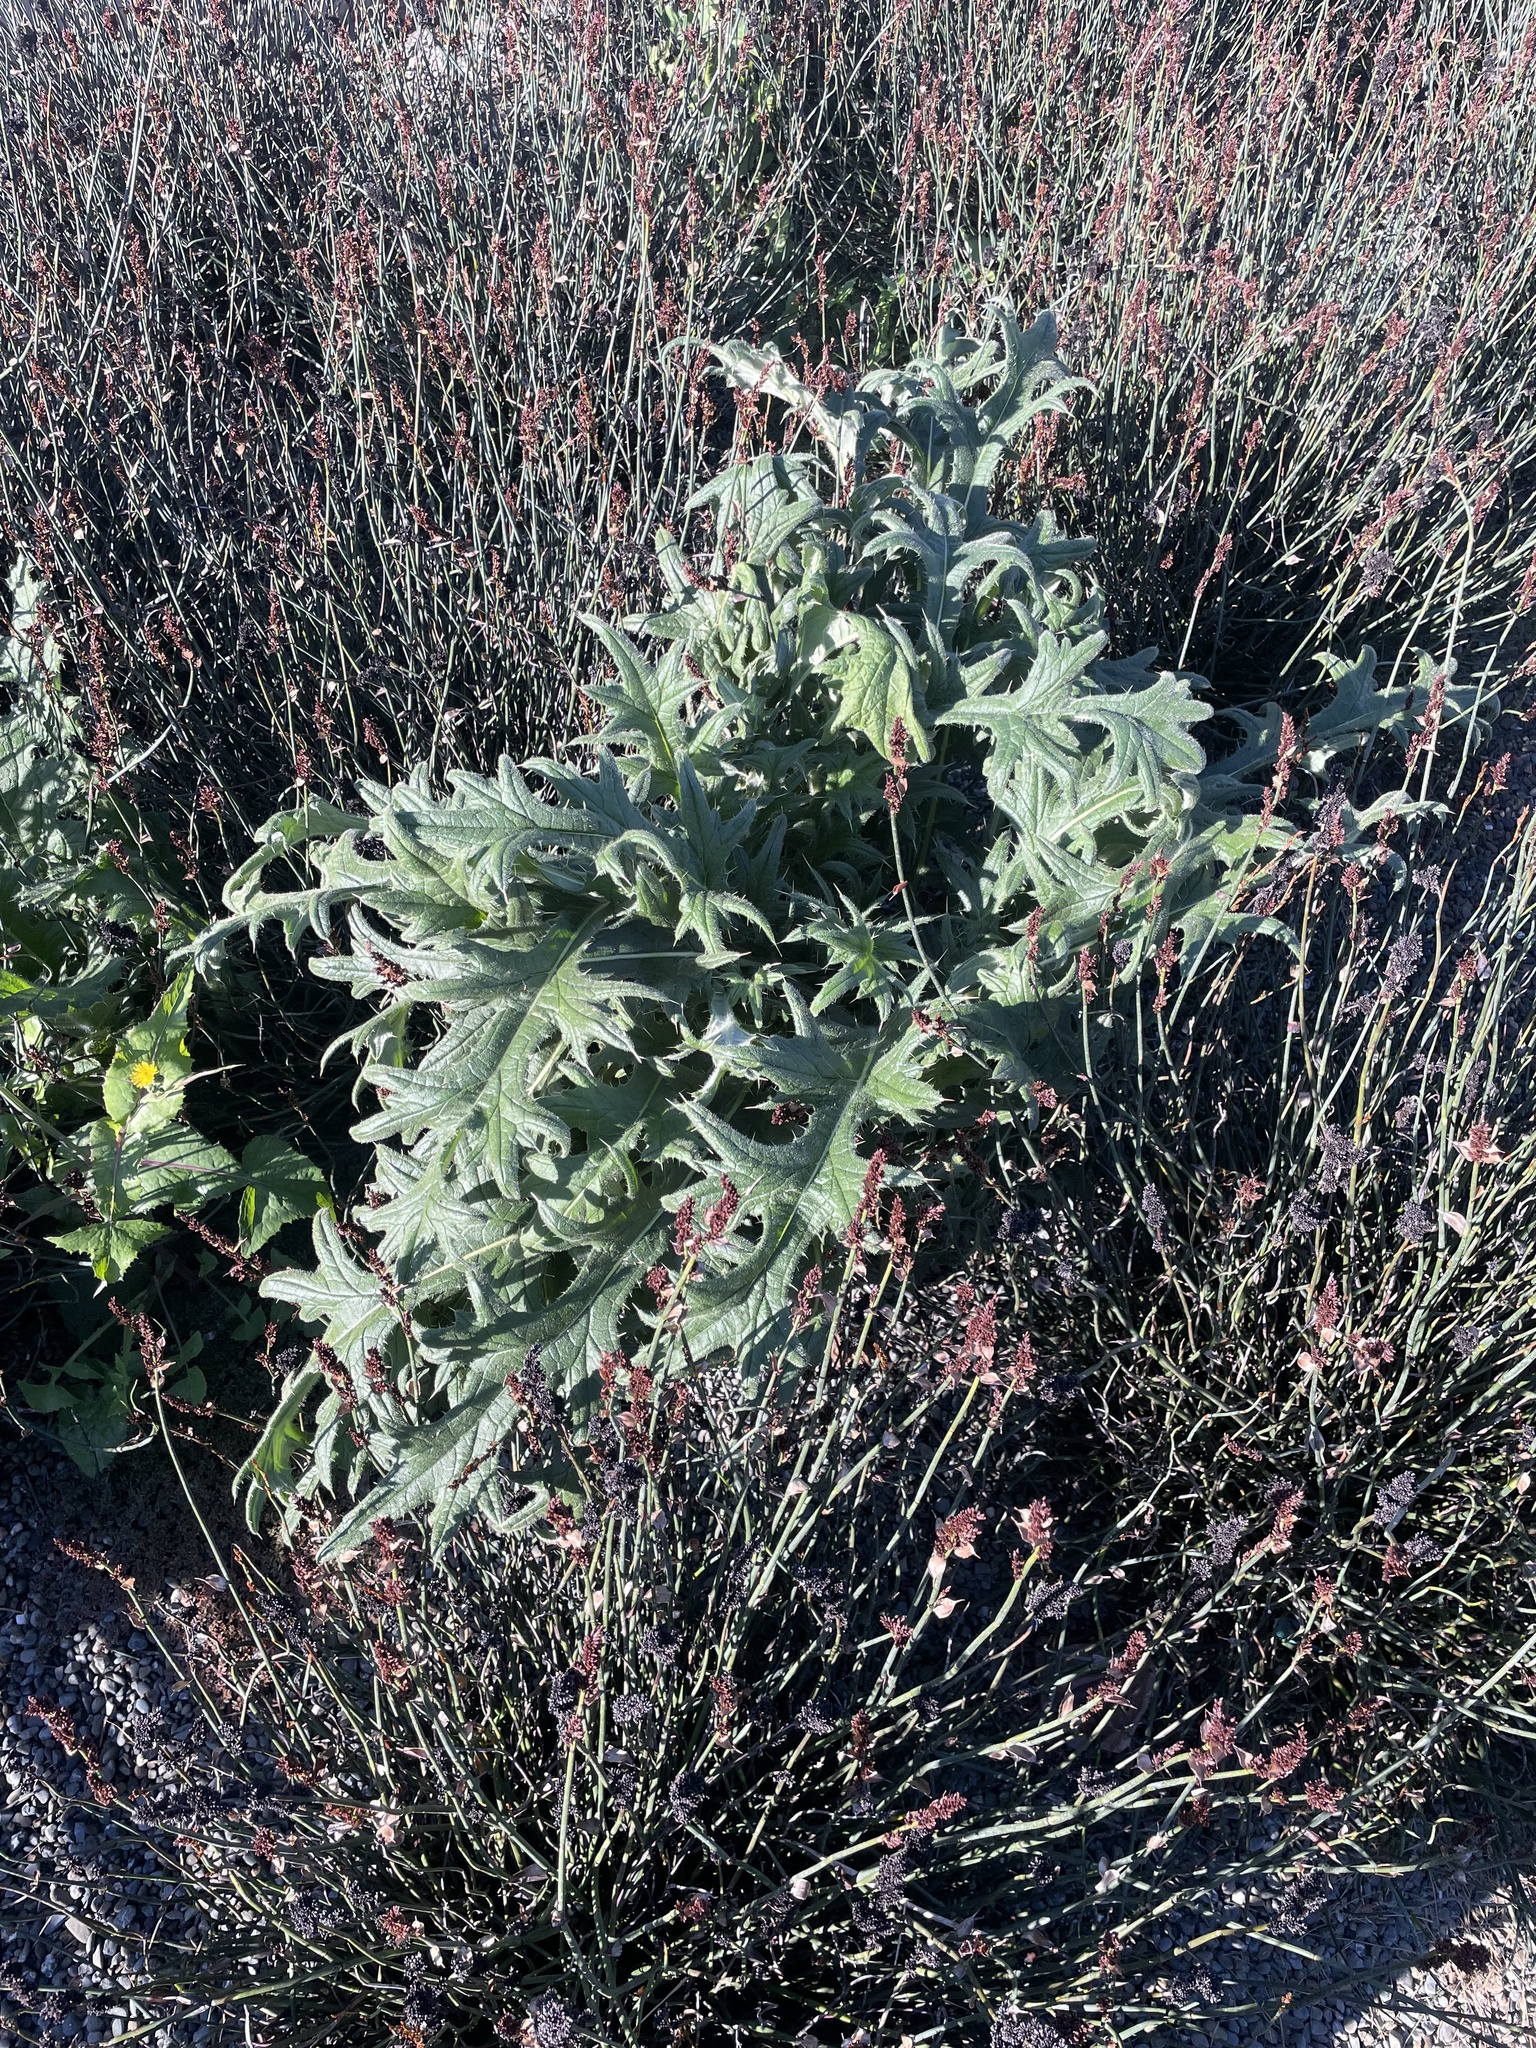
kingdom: Plantae
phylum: Tracheophyta
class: Magnoliopsida
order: Asterales
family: Asteraceae
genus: Cirsium
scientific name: Cirsium vulgare
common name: Bull thistle
